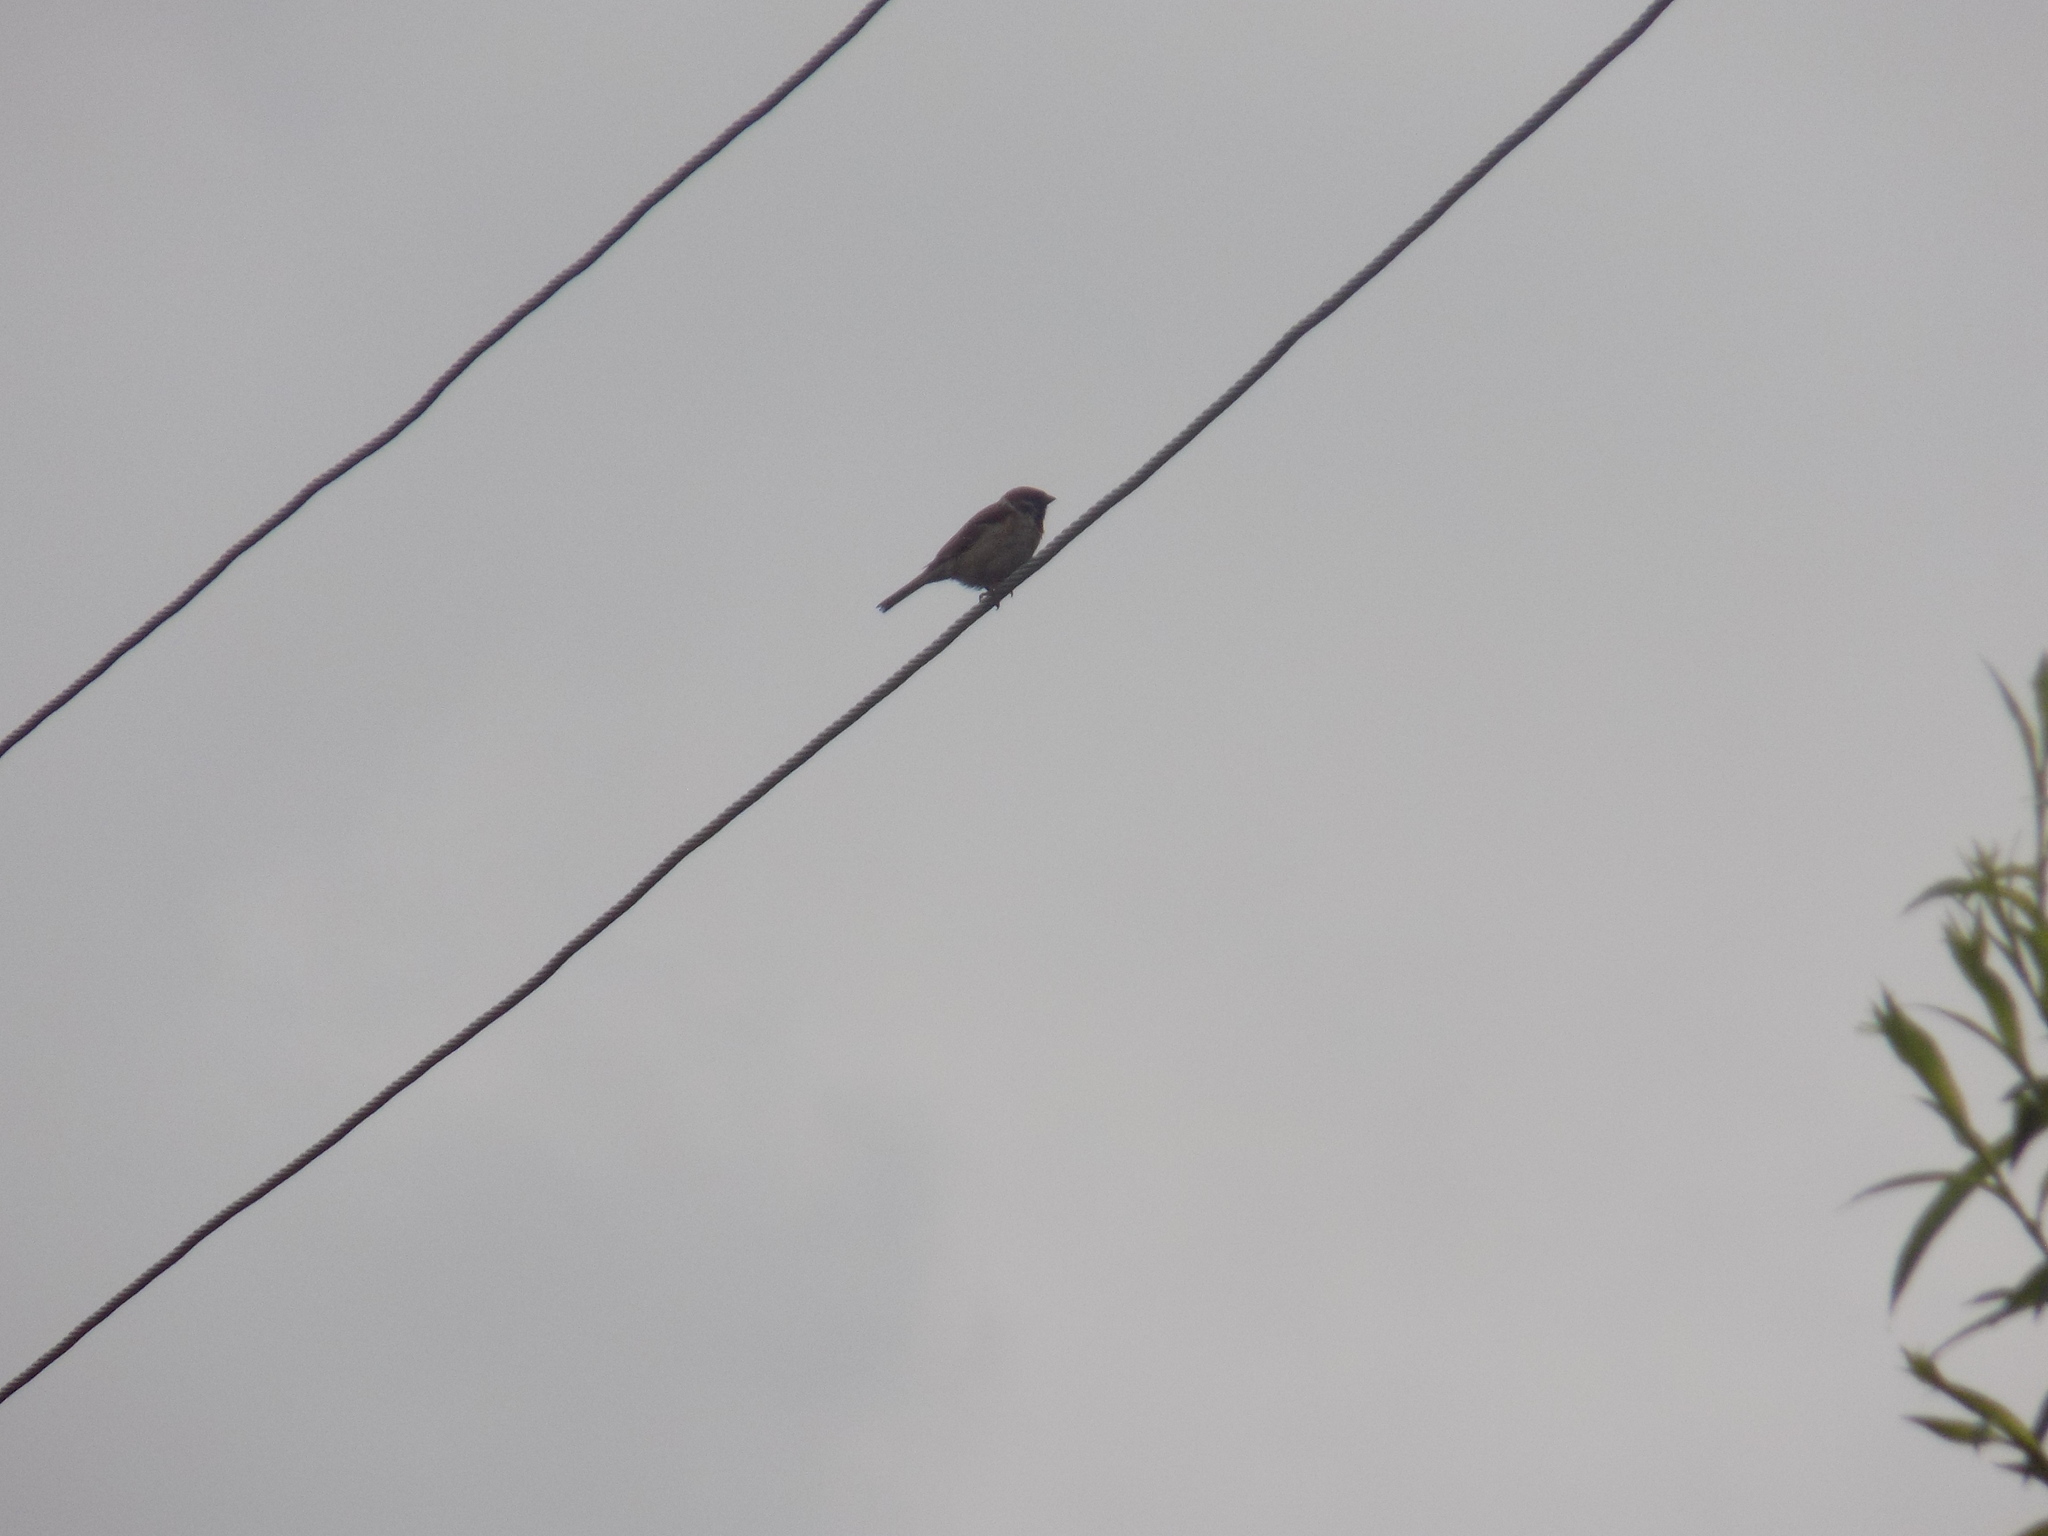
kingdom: Animalia
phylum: Chordata
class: Aves
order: Passeriformes
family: Passeridae
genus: Passer
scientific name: Passer montanus
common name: Eurasian tree sparrow
